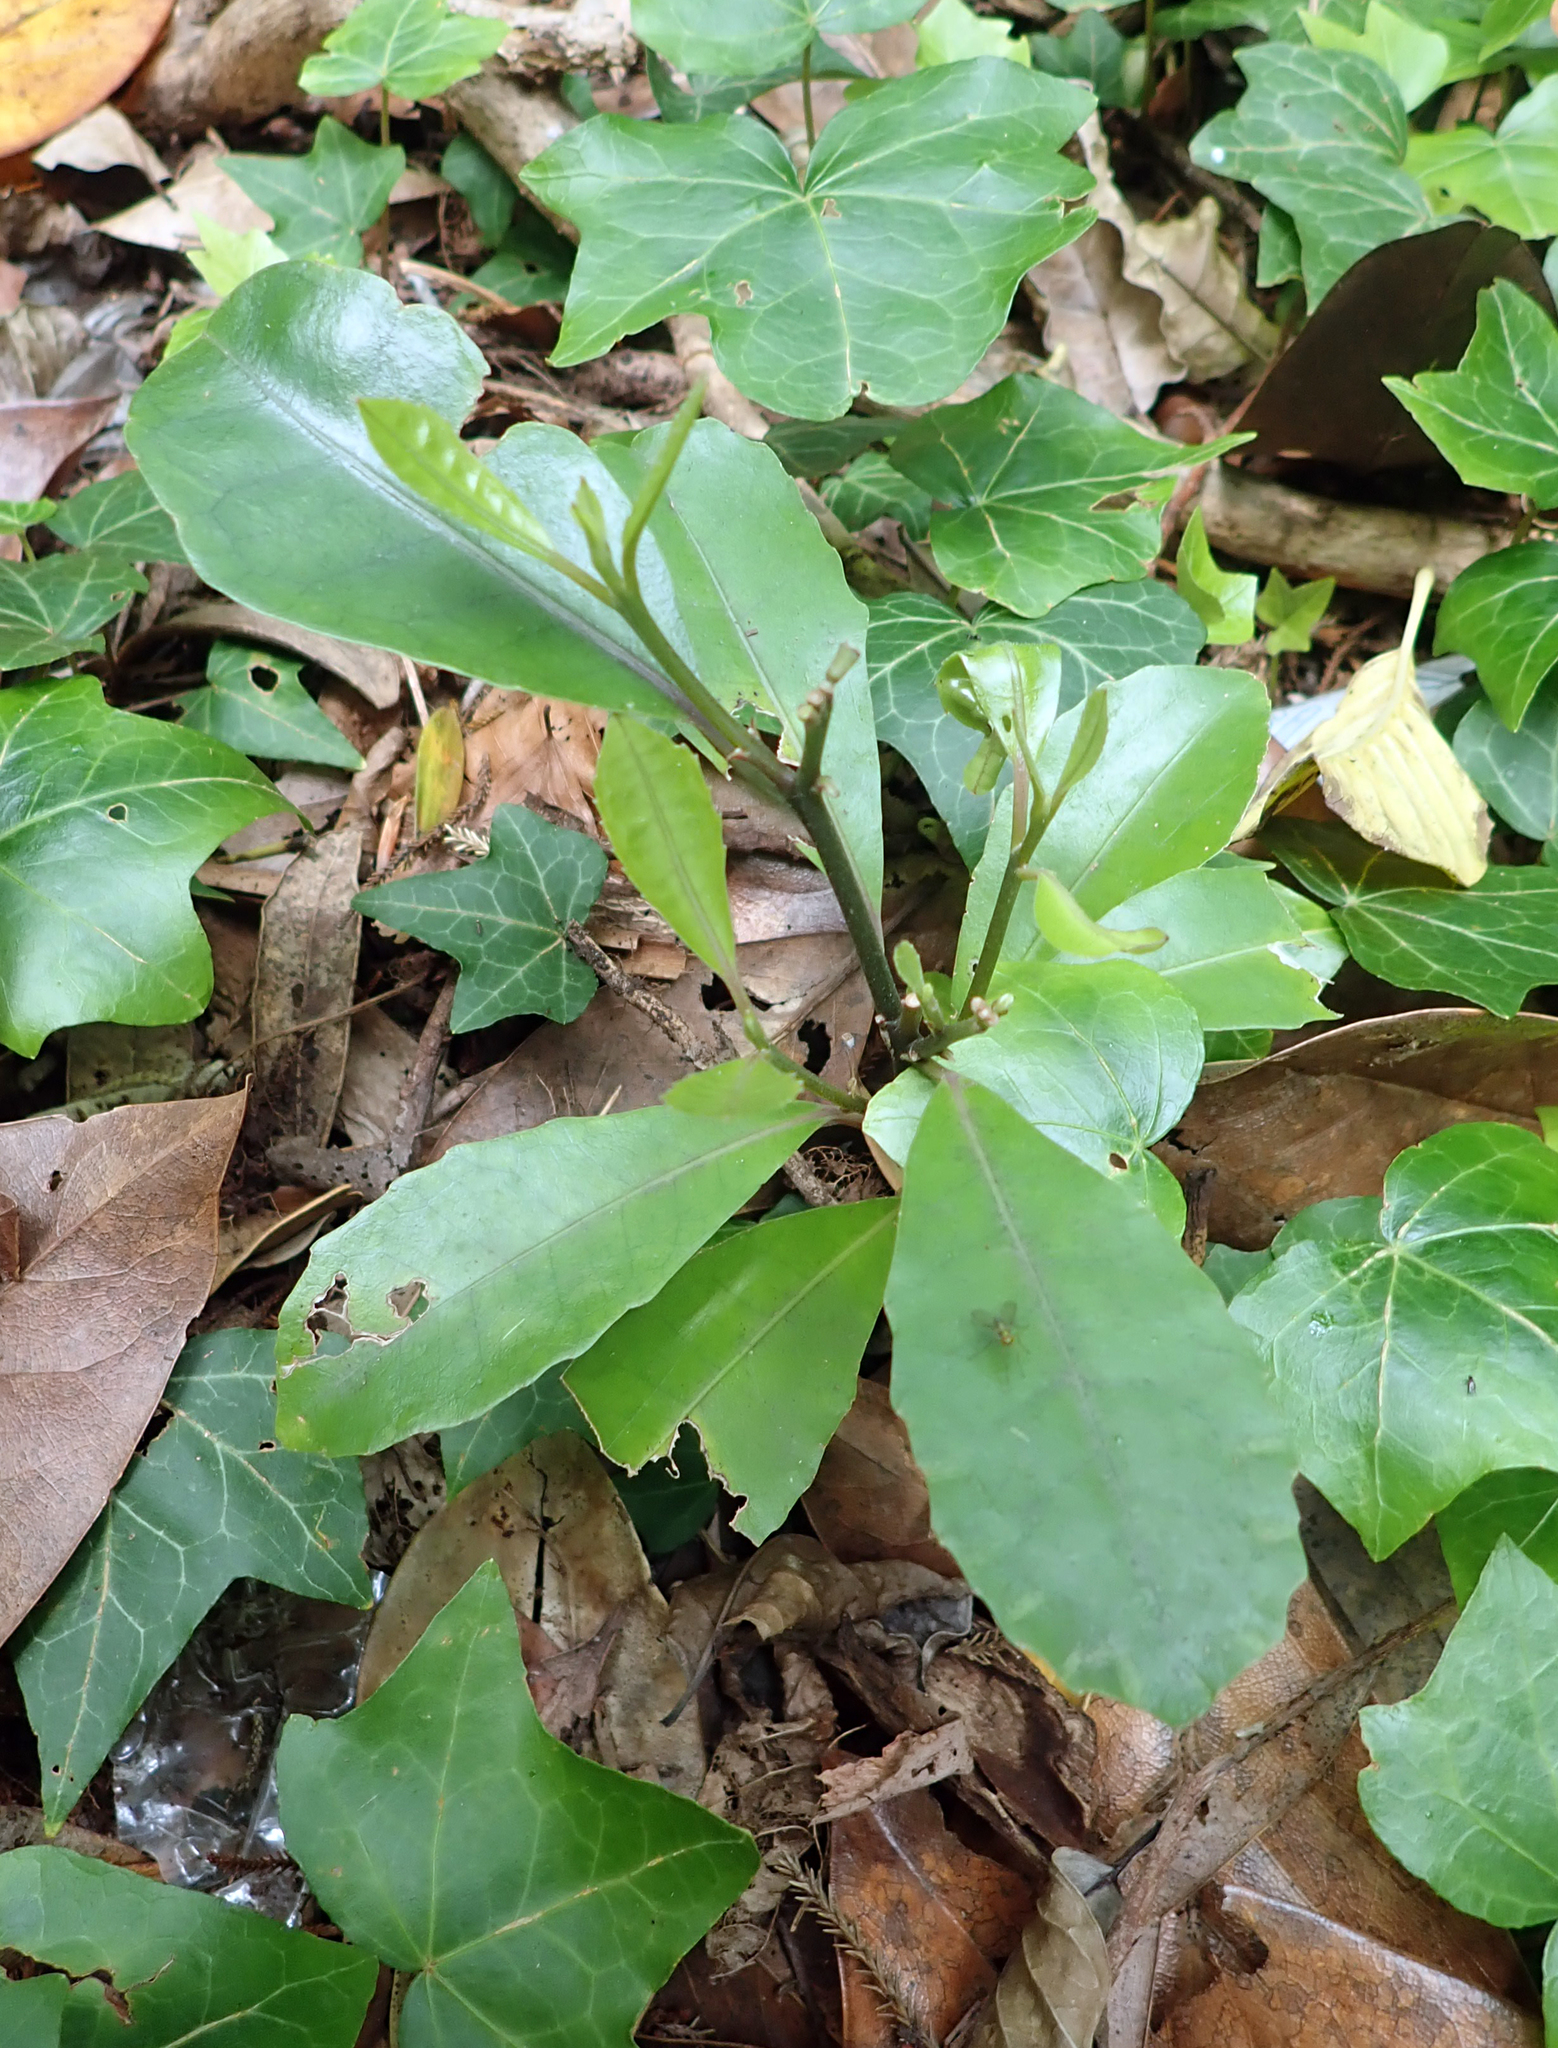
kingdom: Plantae
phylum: Tracheophyta
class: Magnoliopsida
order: Laurales
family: Monimiaceae
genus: Hedycarya
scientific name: Hedycarya arborea
